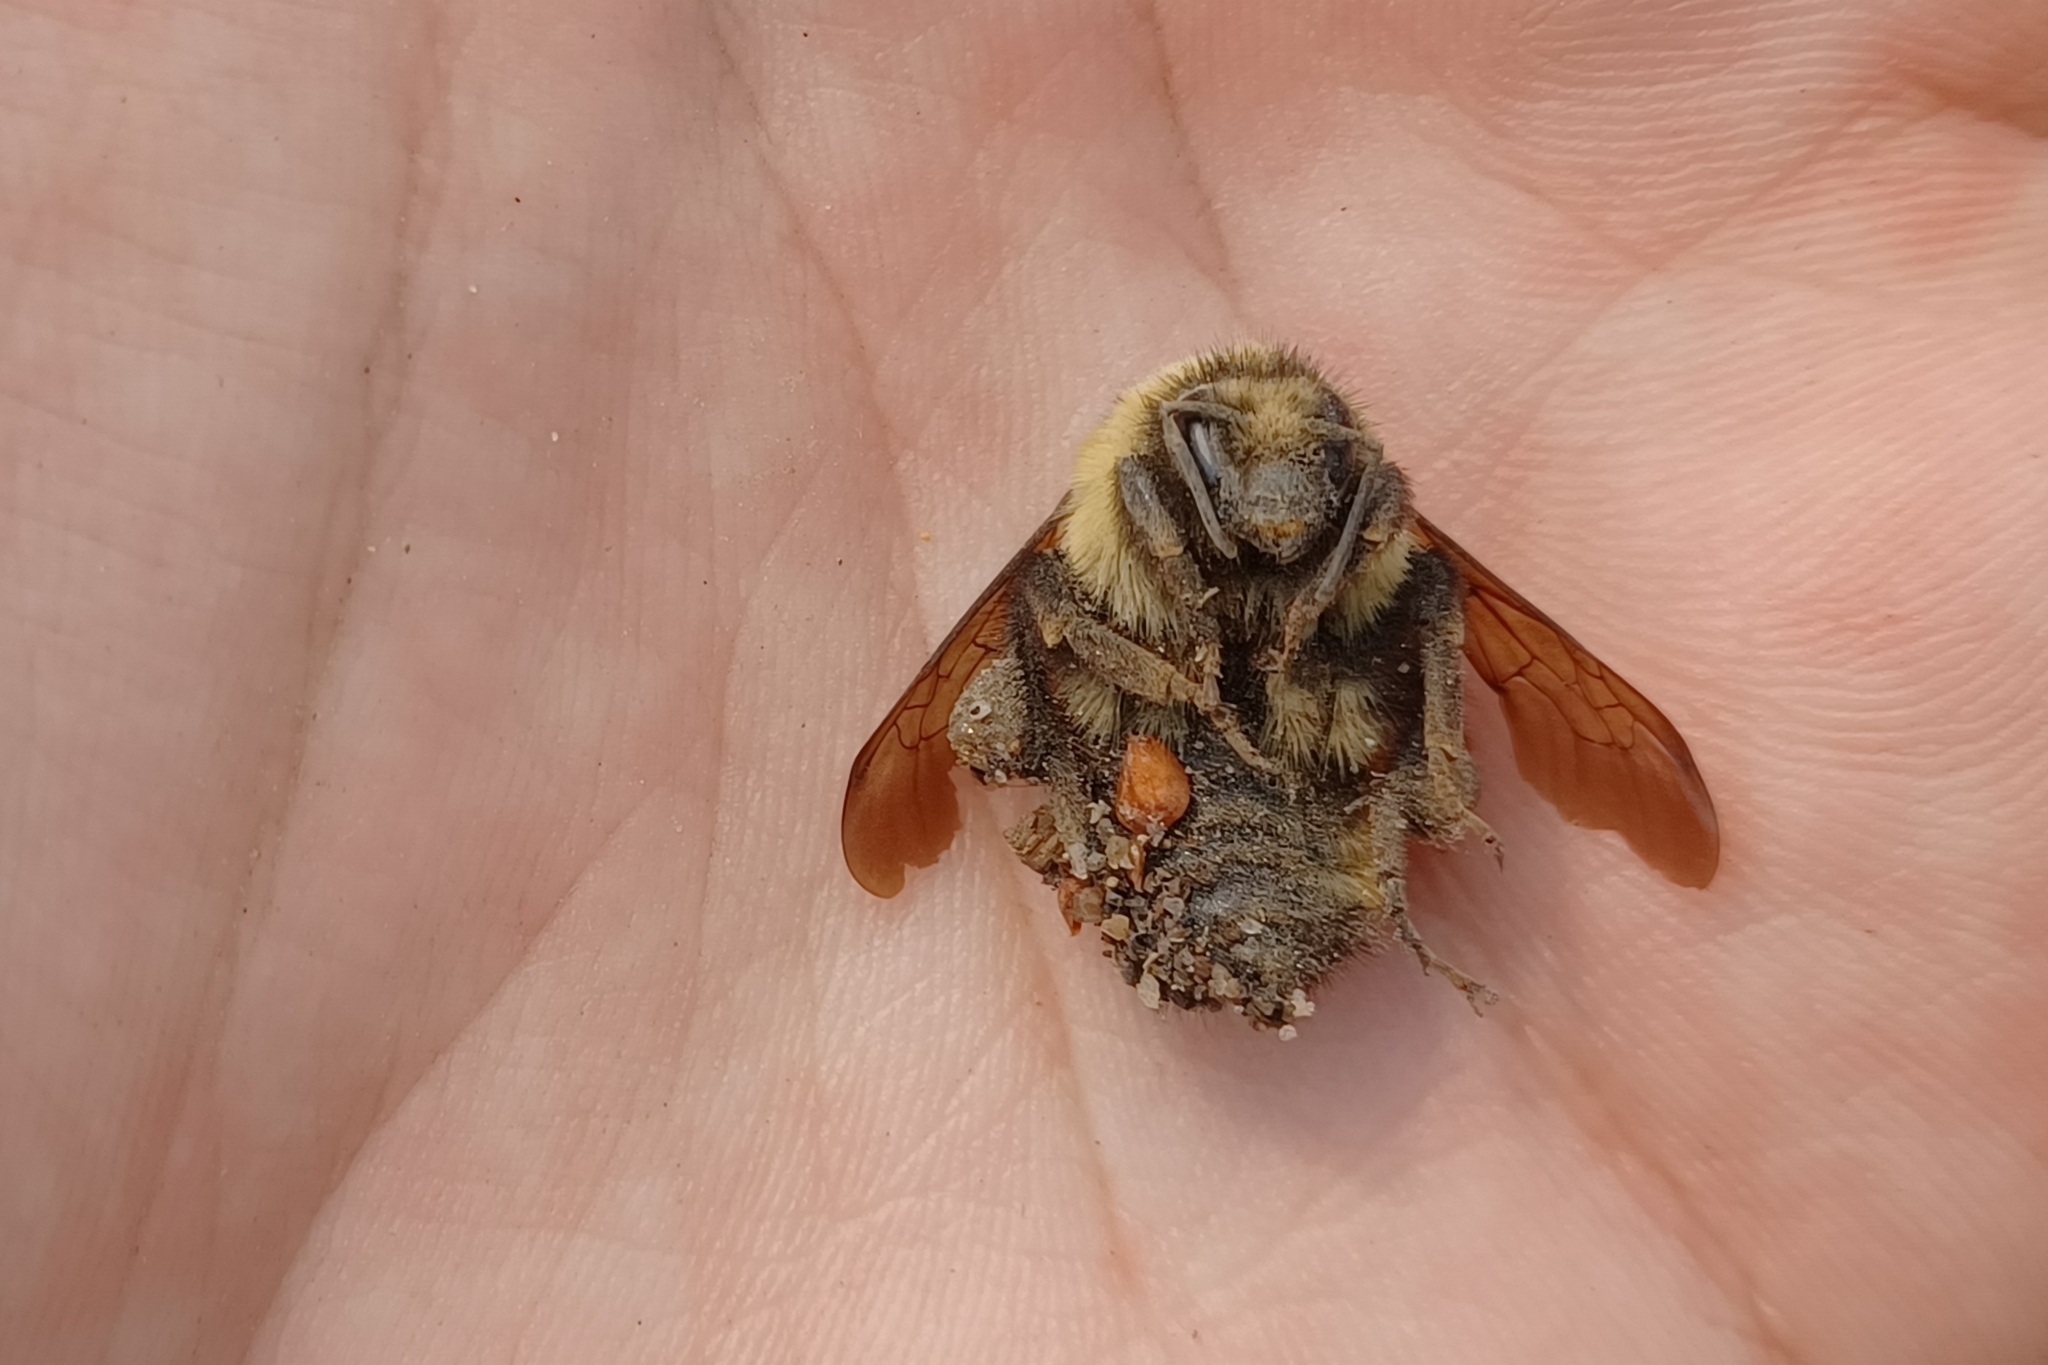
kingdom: Animalia
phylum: Arthropoda
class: Insecta
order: Hymenoptera
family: Apidae
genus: Bombus
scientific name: Bombus ternarius
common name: Tri-colored bumble bee
